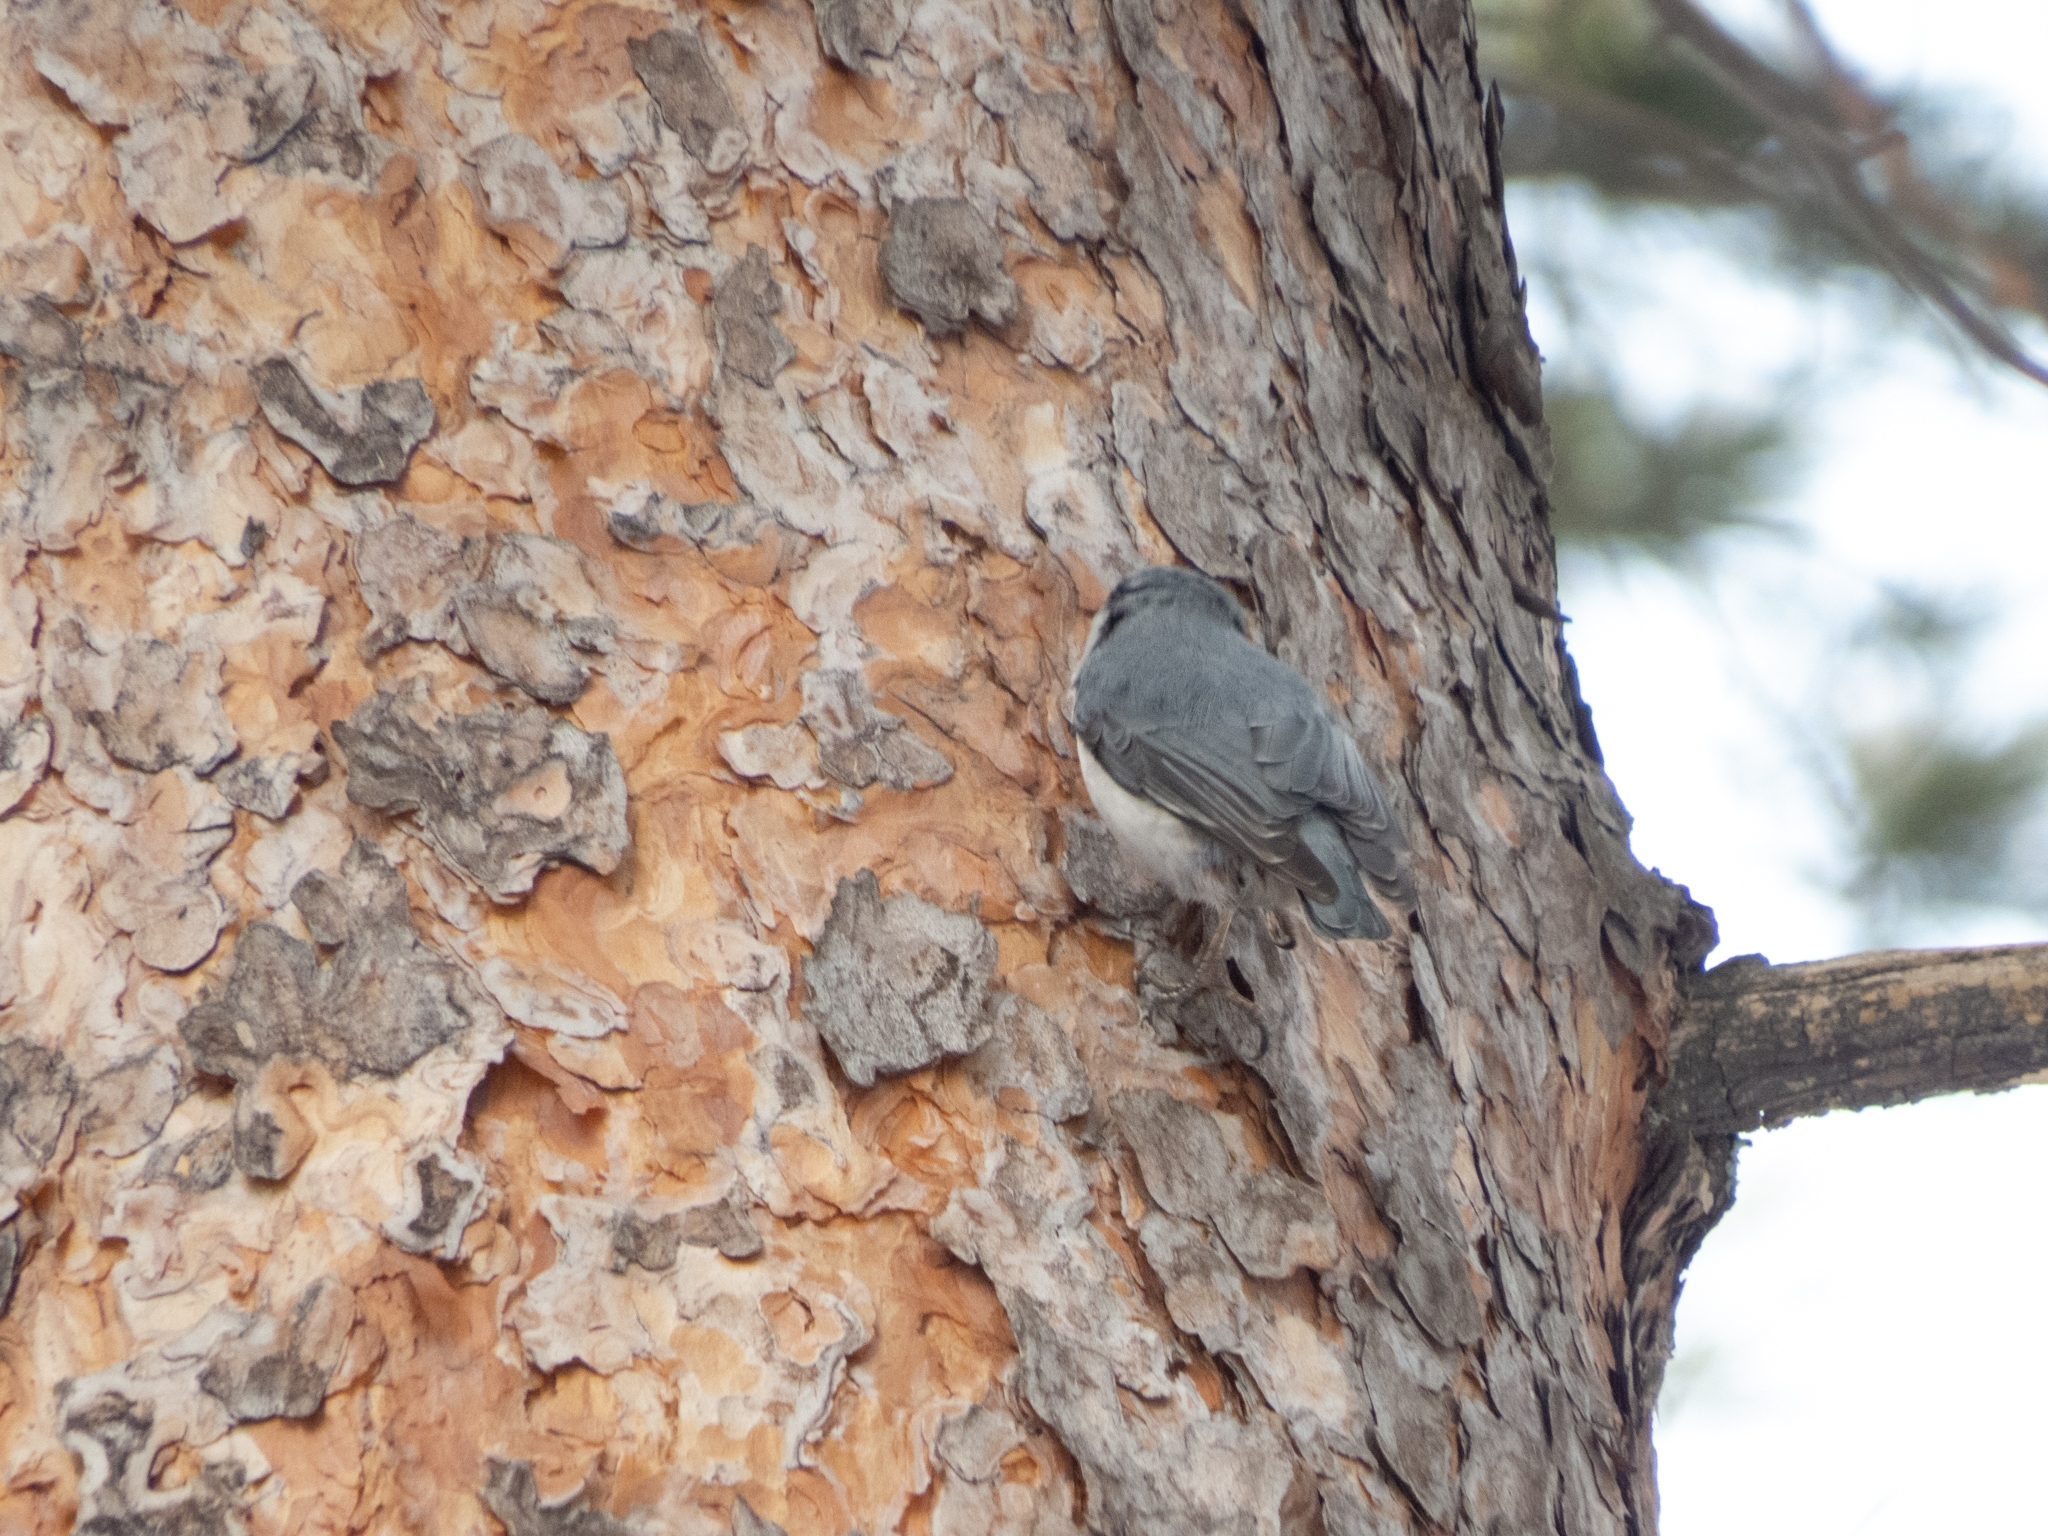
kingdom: Animalia
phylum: Chordata
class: Aves
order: Passeriformes
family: Sittidae
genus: Sitta
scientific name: Sitta europaea
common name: Eurasian nuthatch
